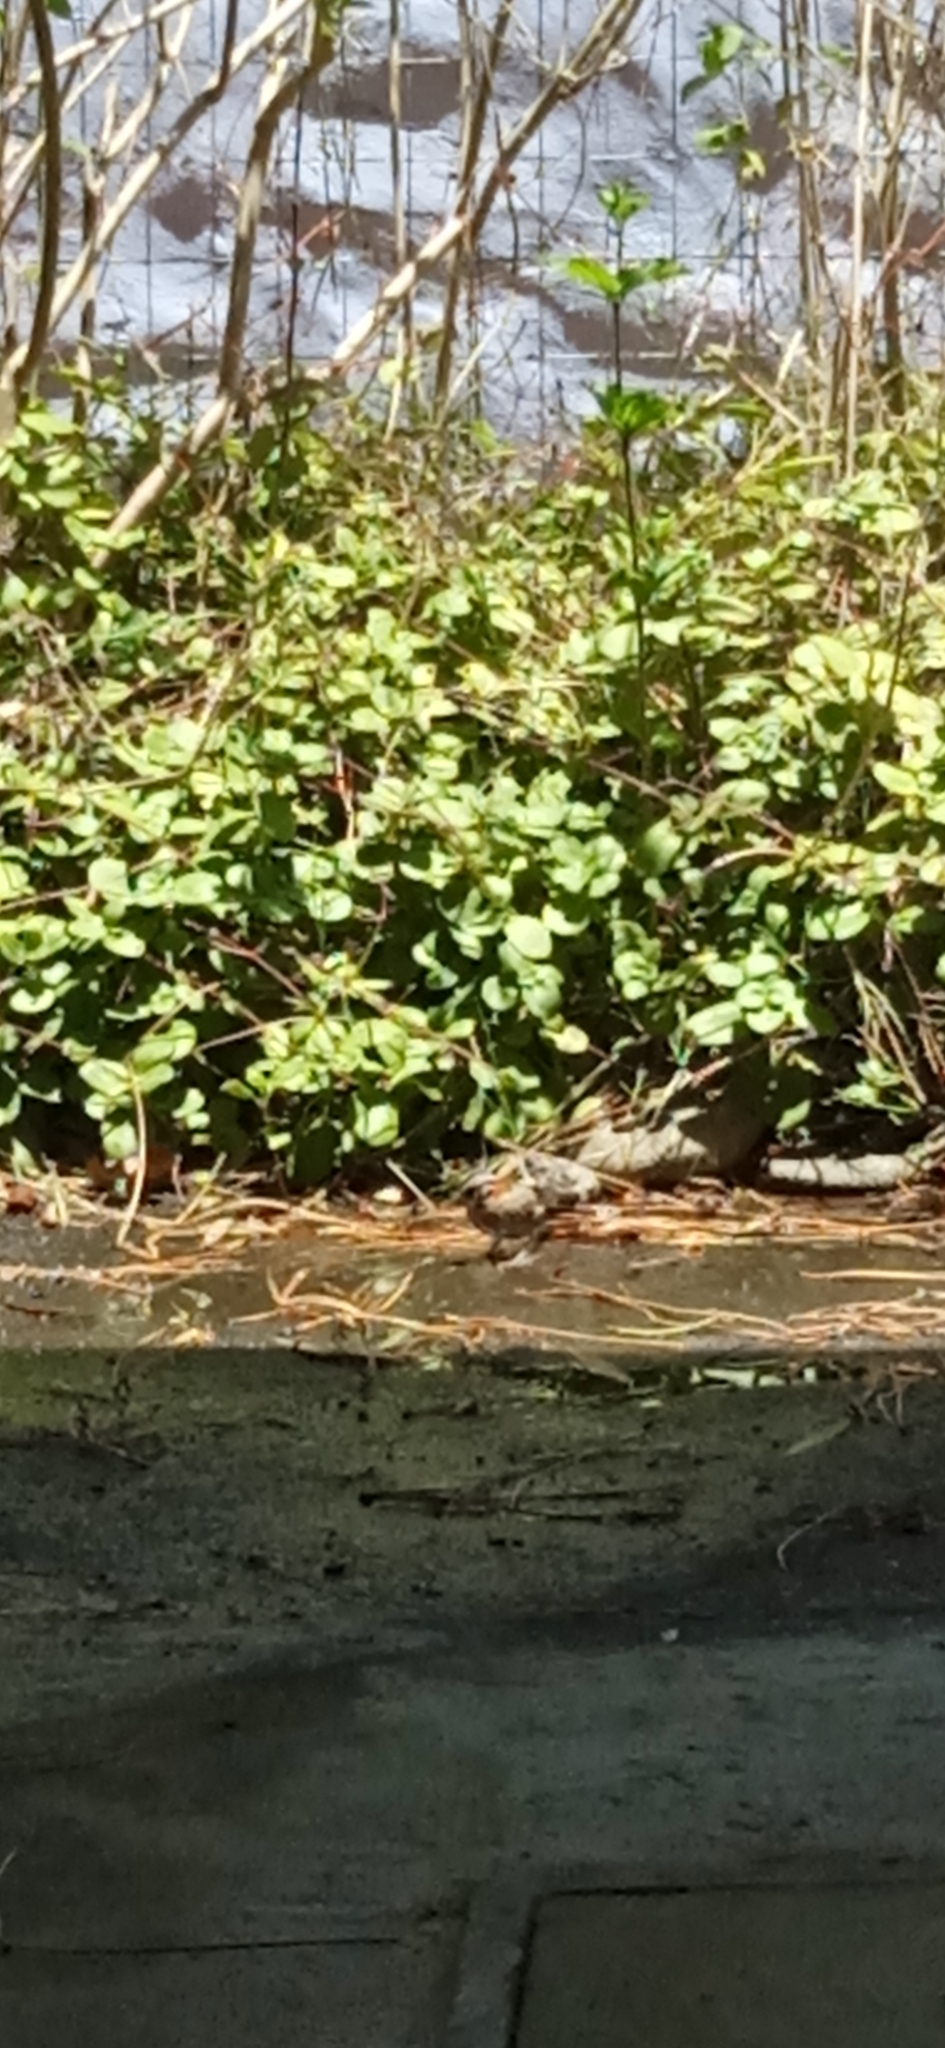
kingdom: Animalia
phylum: Chordata
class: Aves
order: Passeriformes
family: Passerellidae
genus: Zonotrichia
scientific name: Zonotrichia capensis
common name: Rufous-collared sparrow
